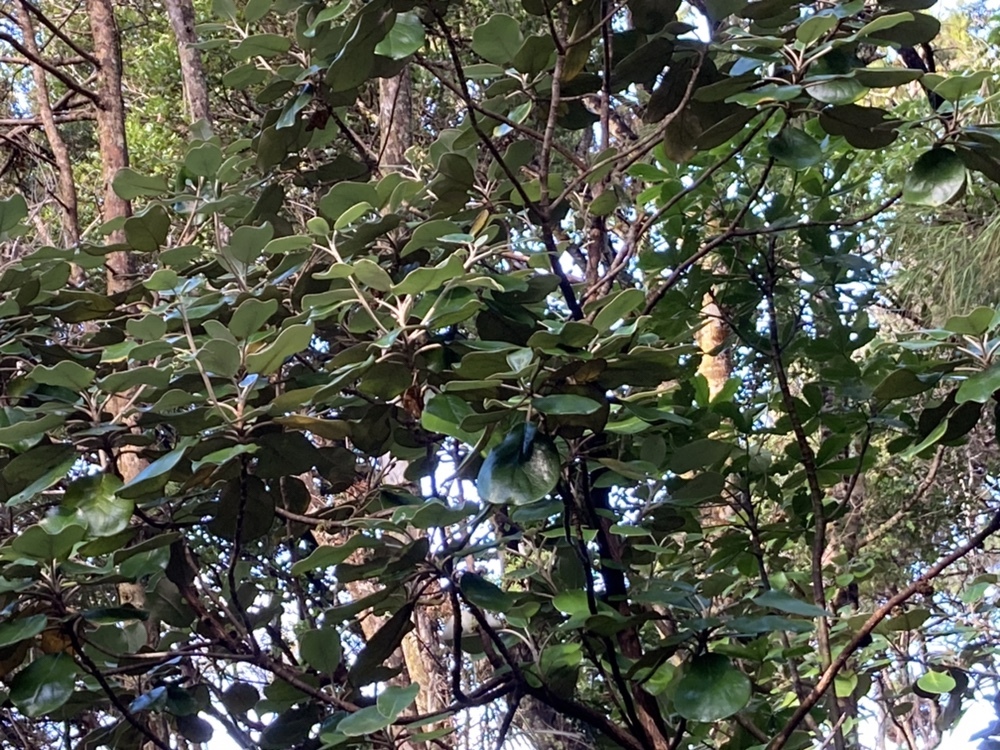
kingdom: Plantae
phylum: Tracheophyta
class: Magnoliopsida
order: Asterales
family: Asteraceae
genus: Brachyglottis
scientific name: Brachyglottis rotundifolia
